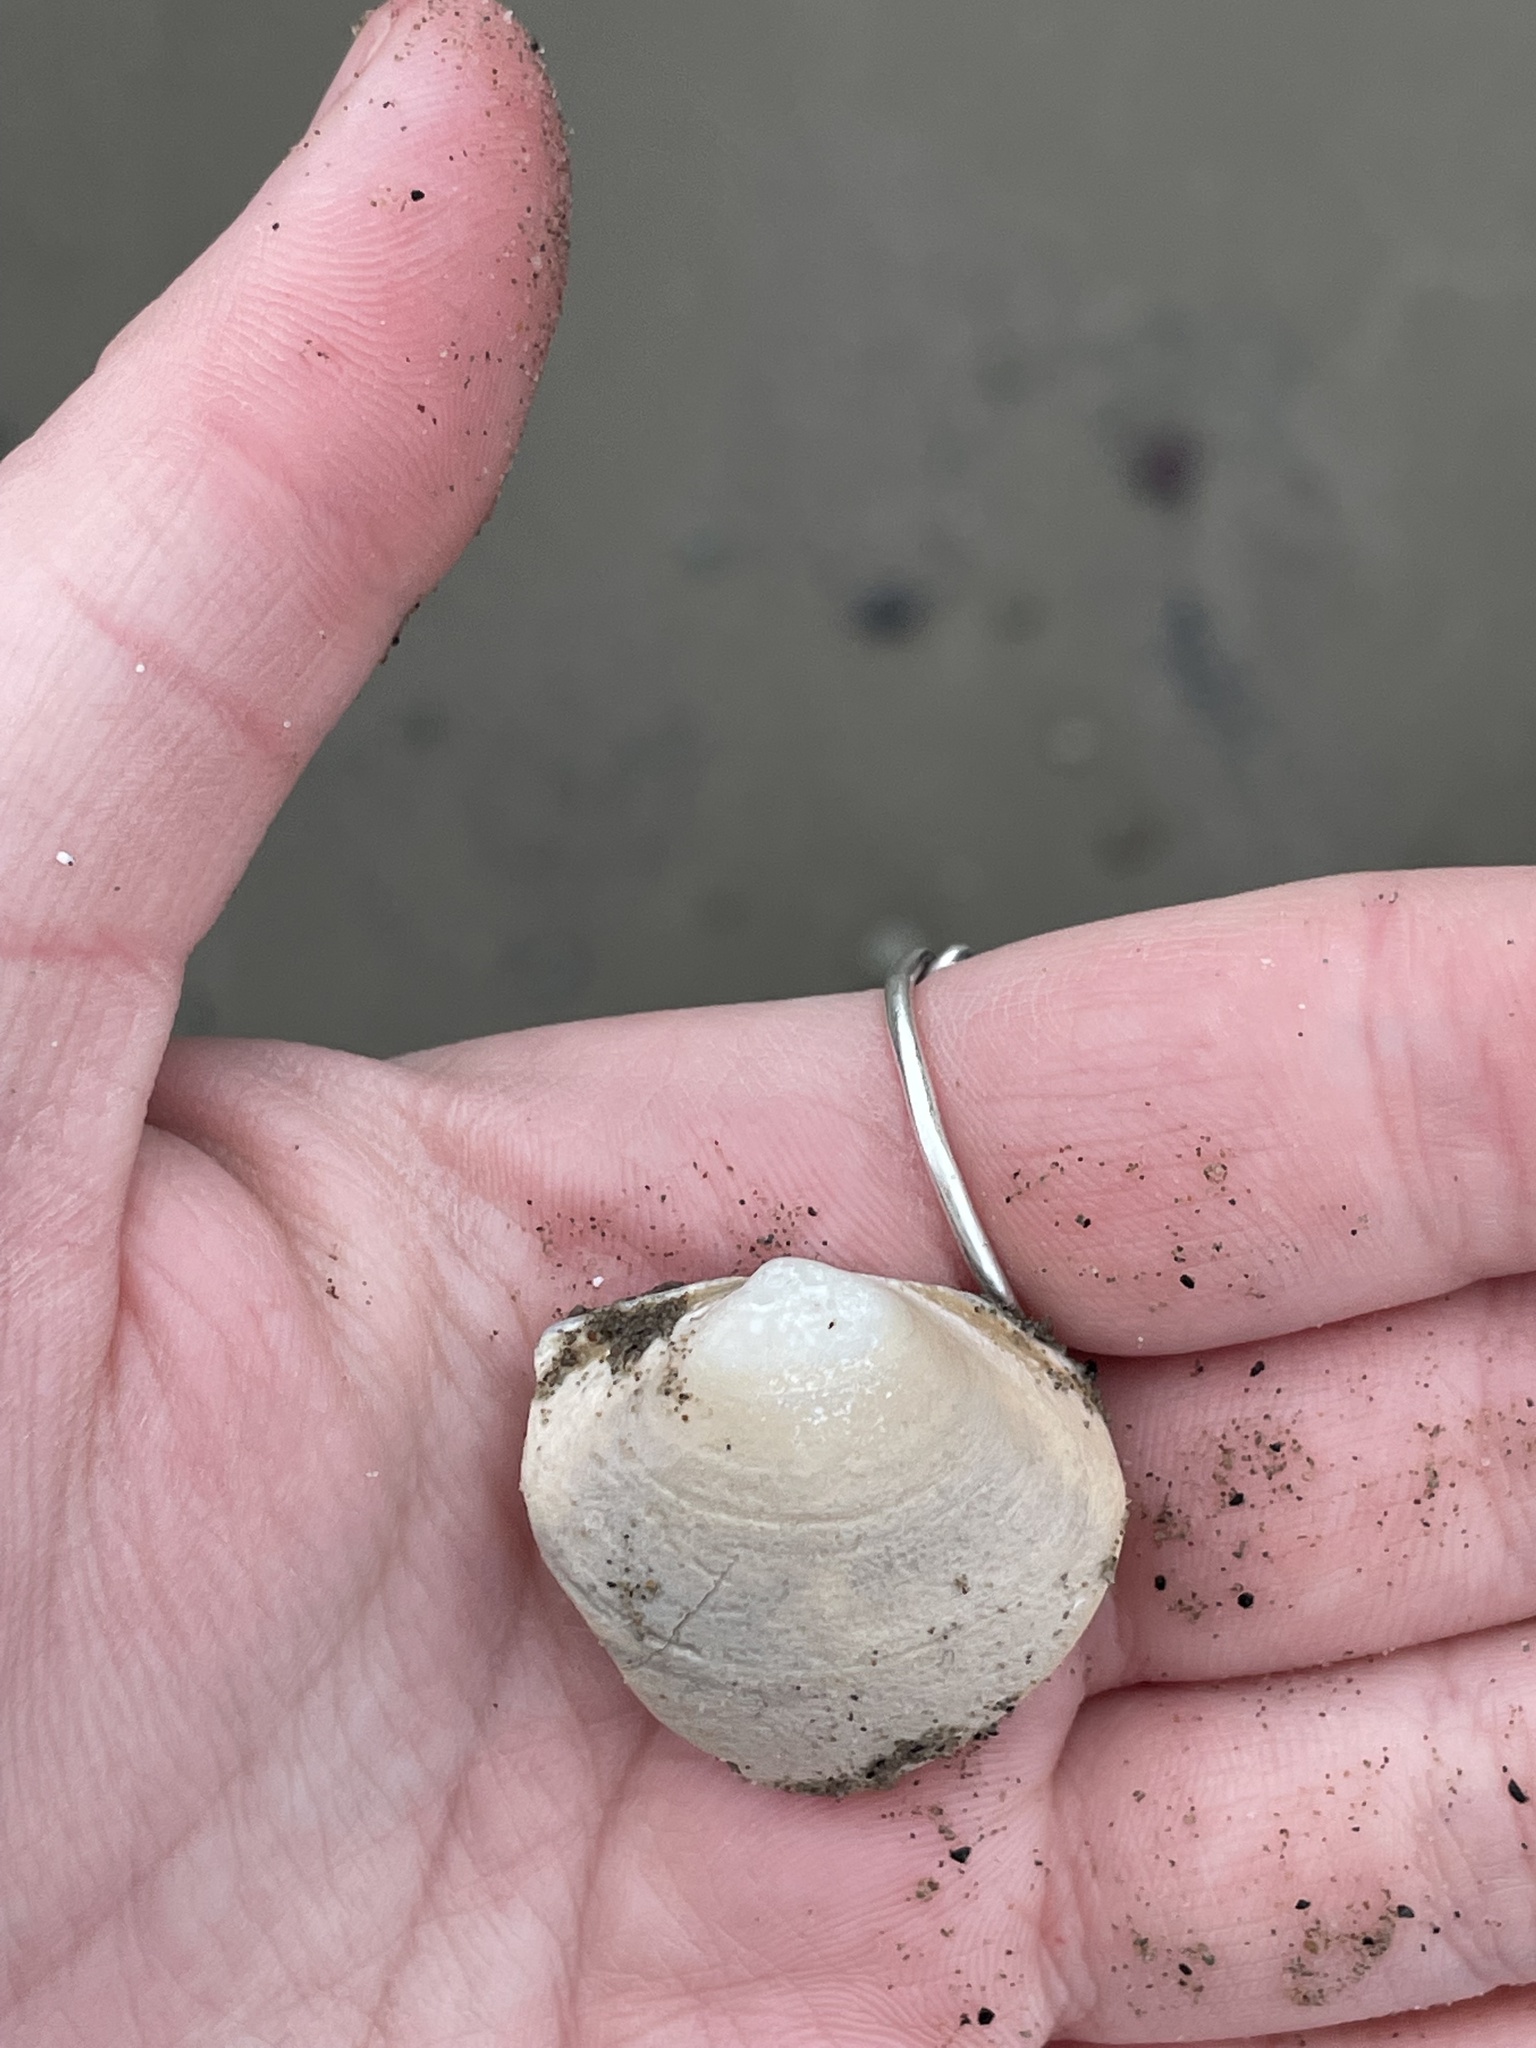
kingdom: Animalia
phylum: Mollusca
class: Bivalvia
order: Venerida
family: Mactridae
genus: Spisula
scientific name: Spisula solidissima
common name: Atlantic surf clam
